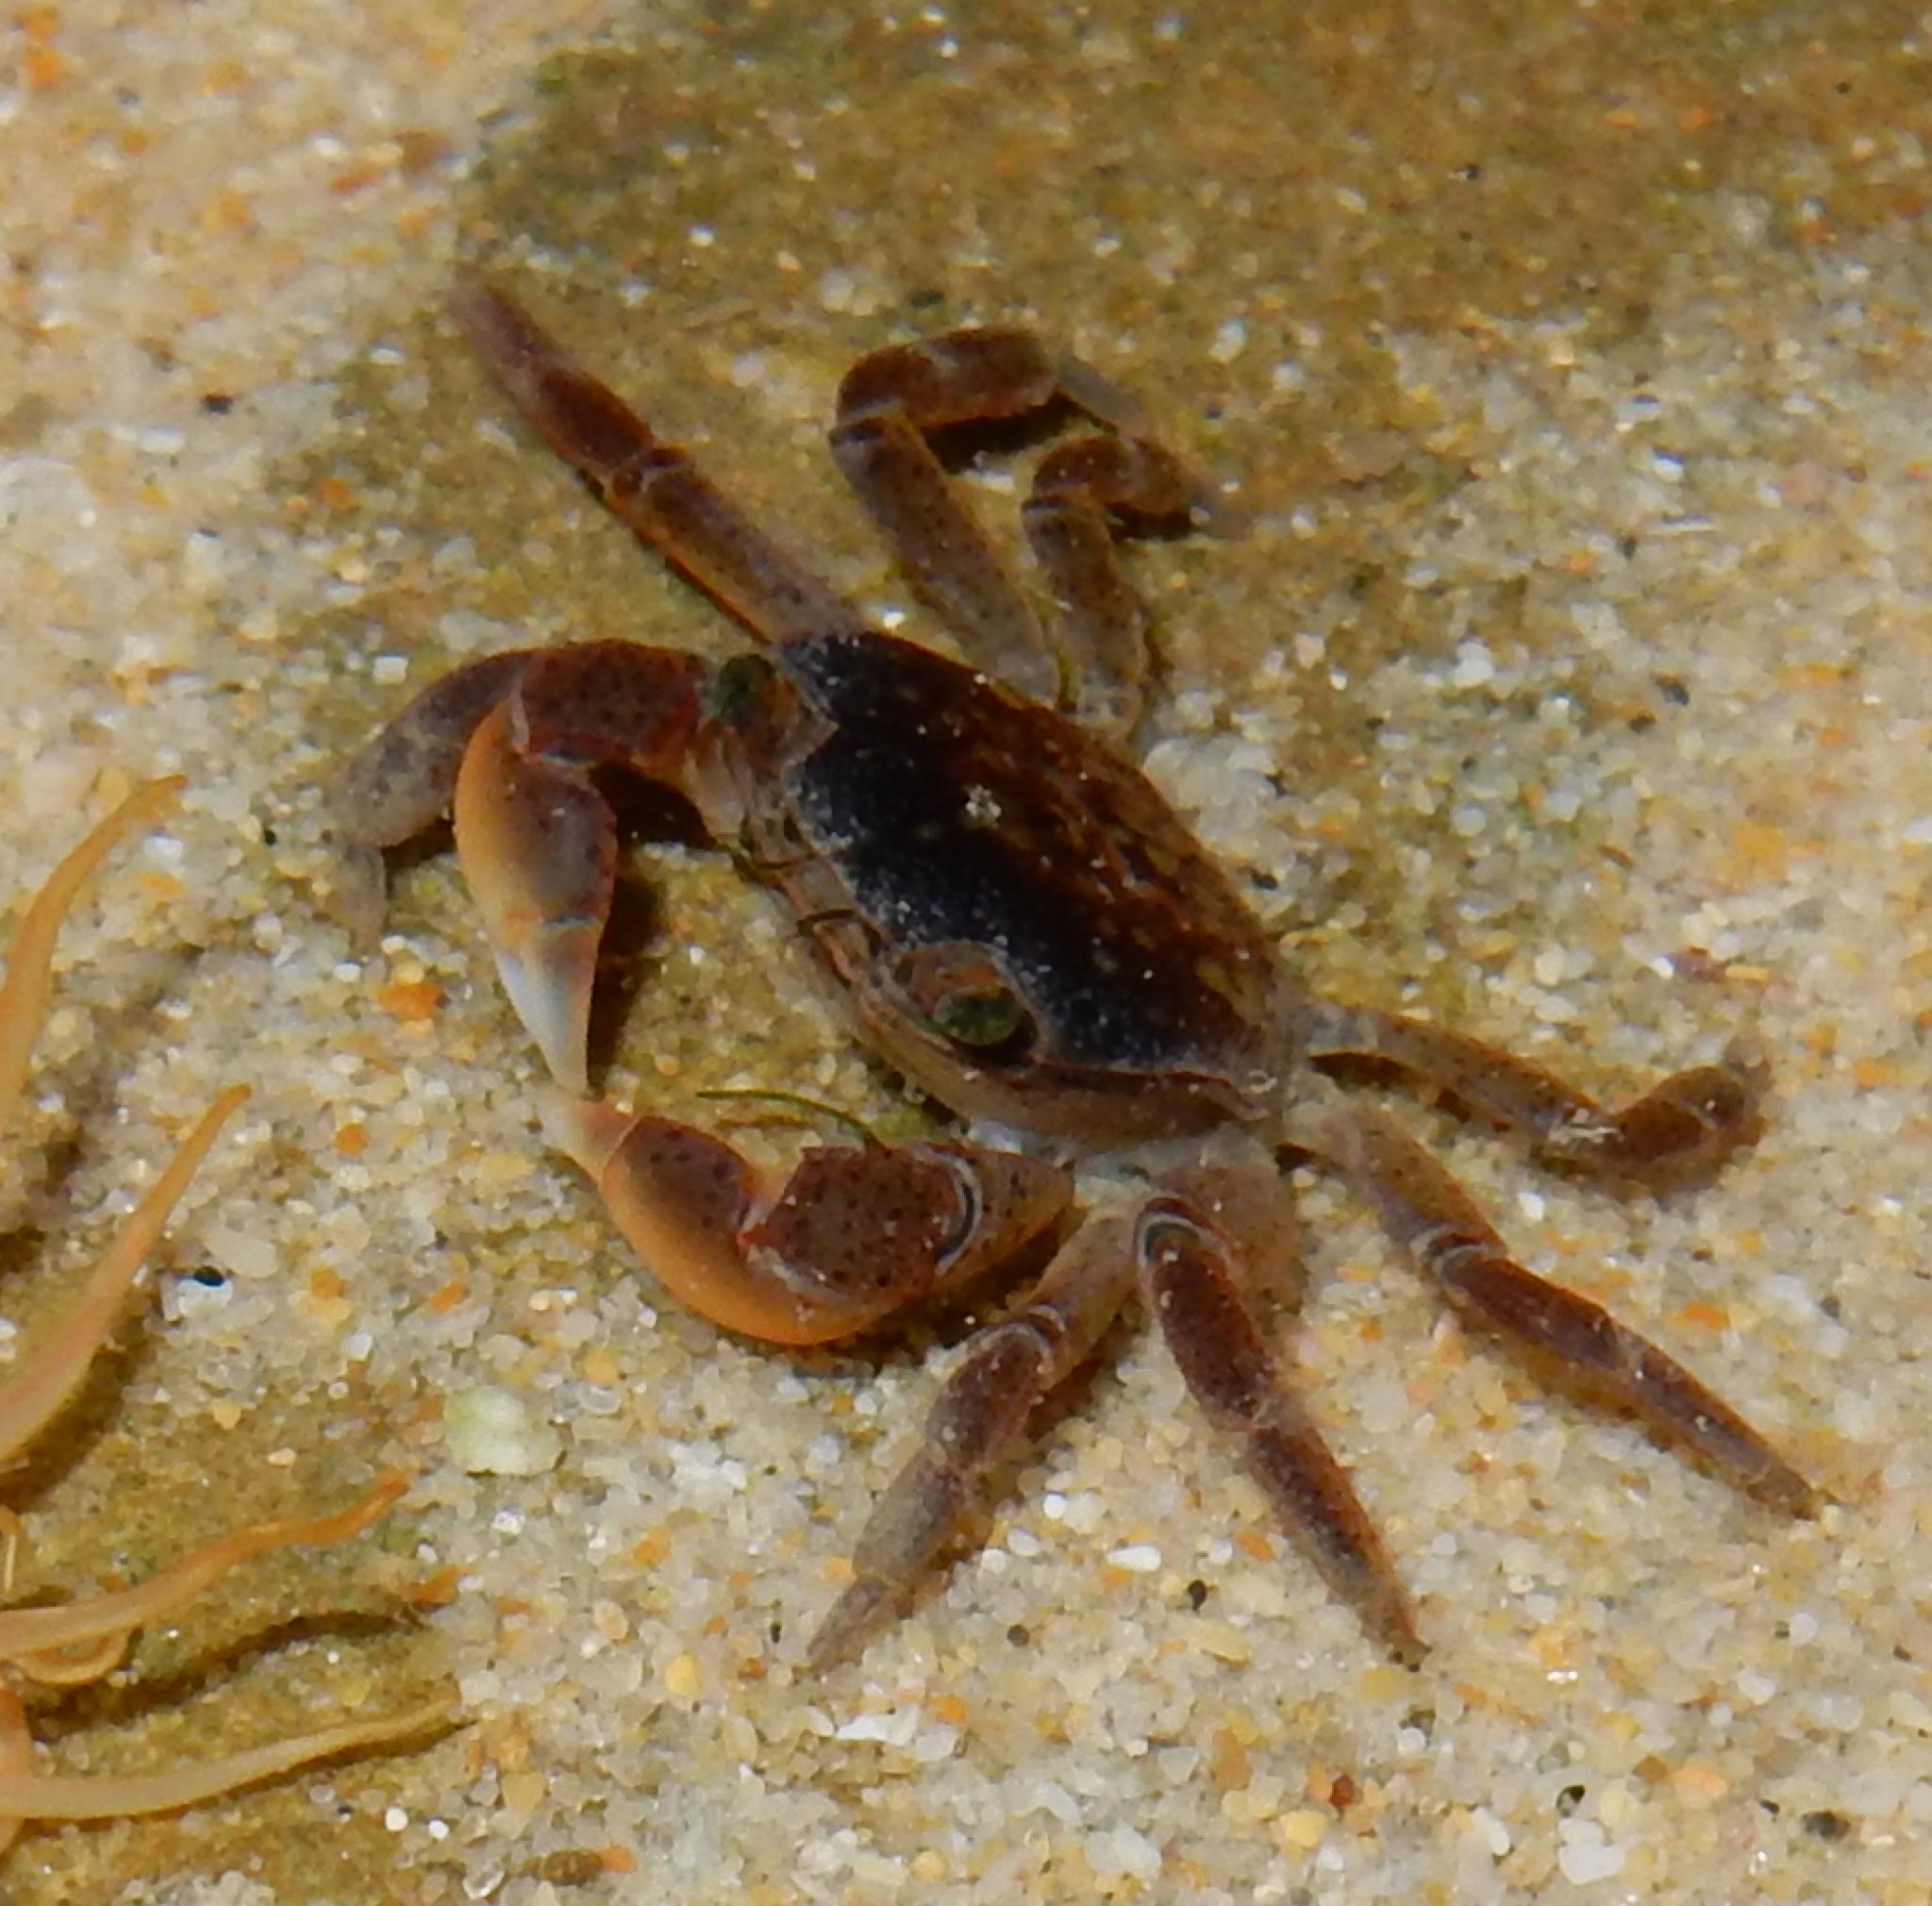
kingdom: Animalia
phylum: Arthropoda
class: Malacostraca
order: Decapoda
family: Varunidae
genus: Cyclograpsus
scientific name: Cyclograpsus punctatus
